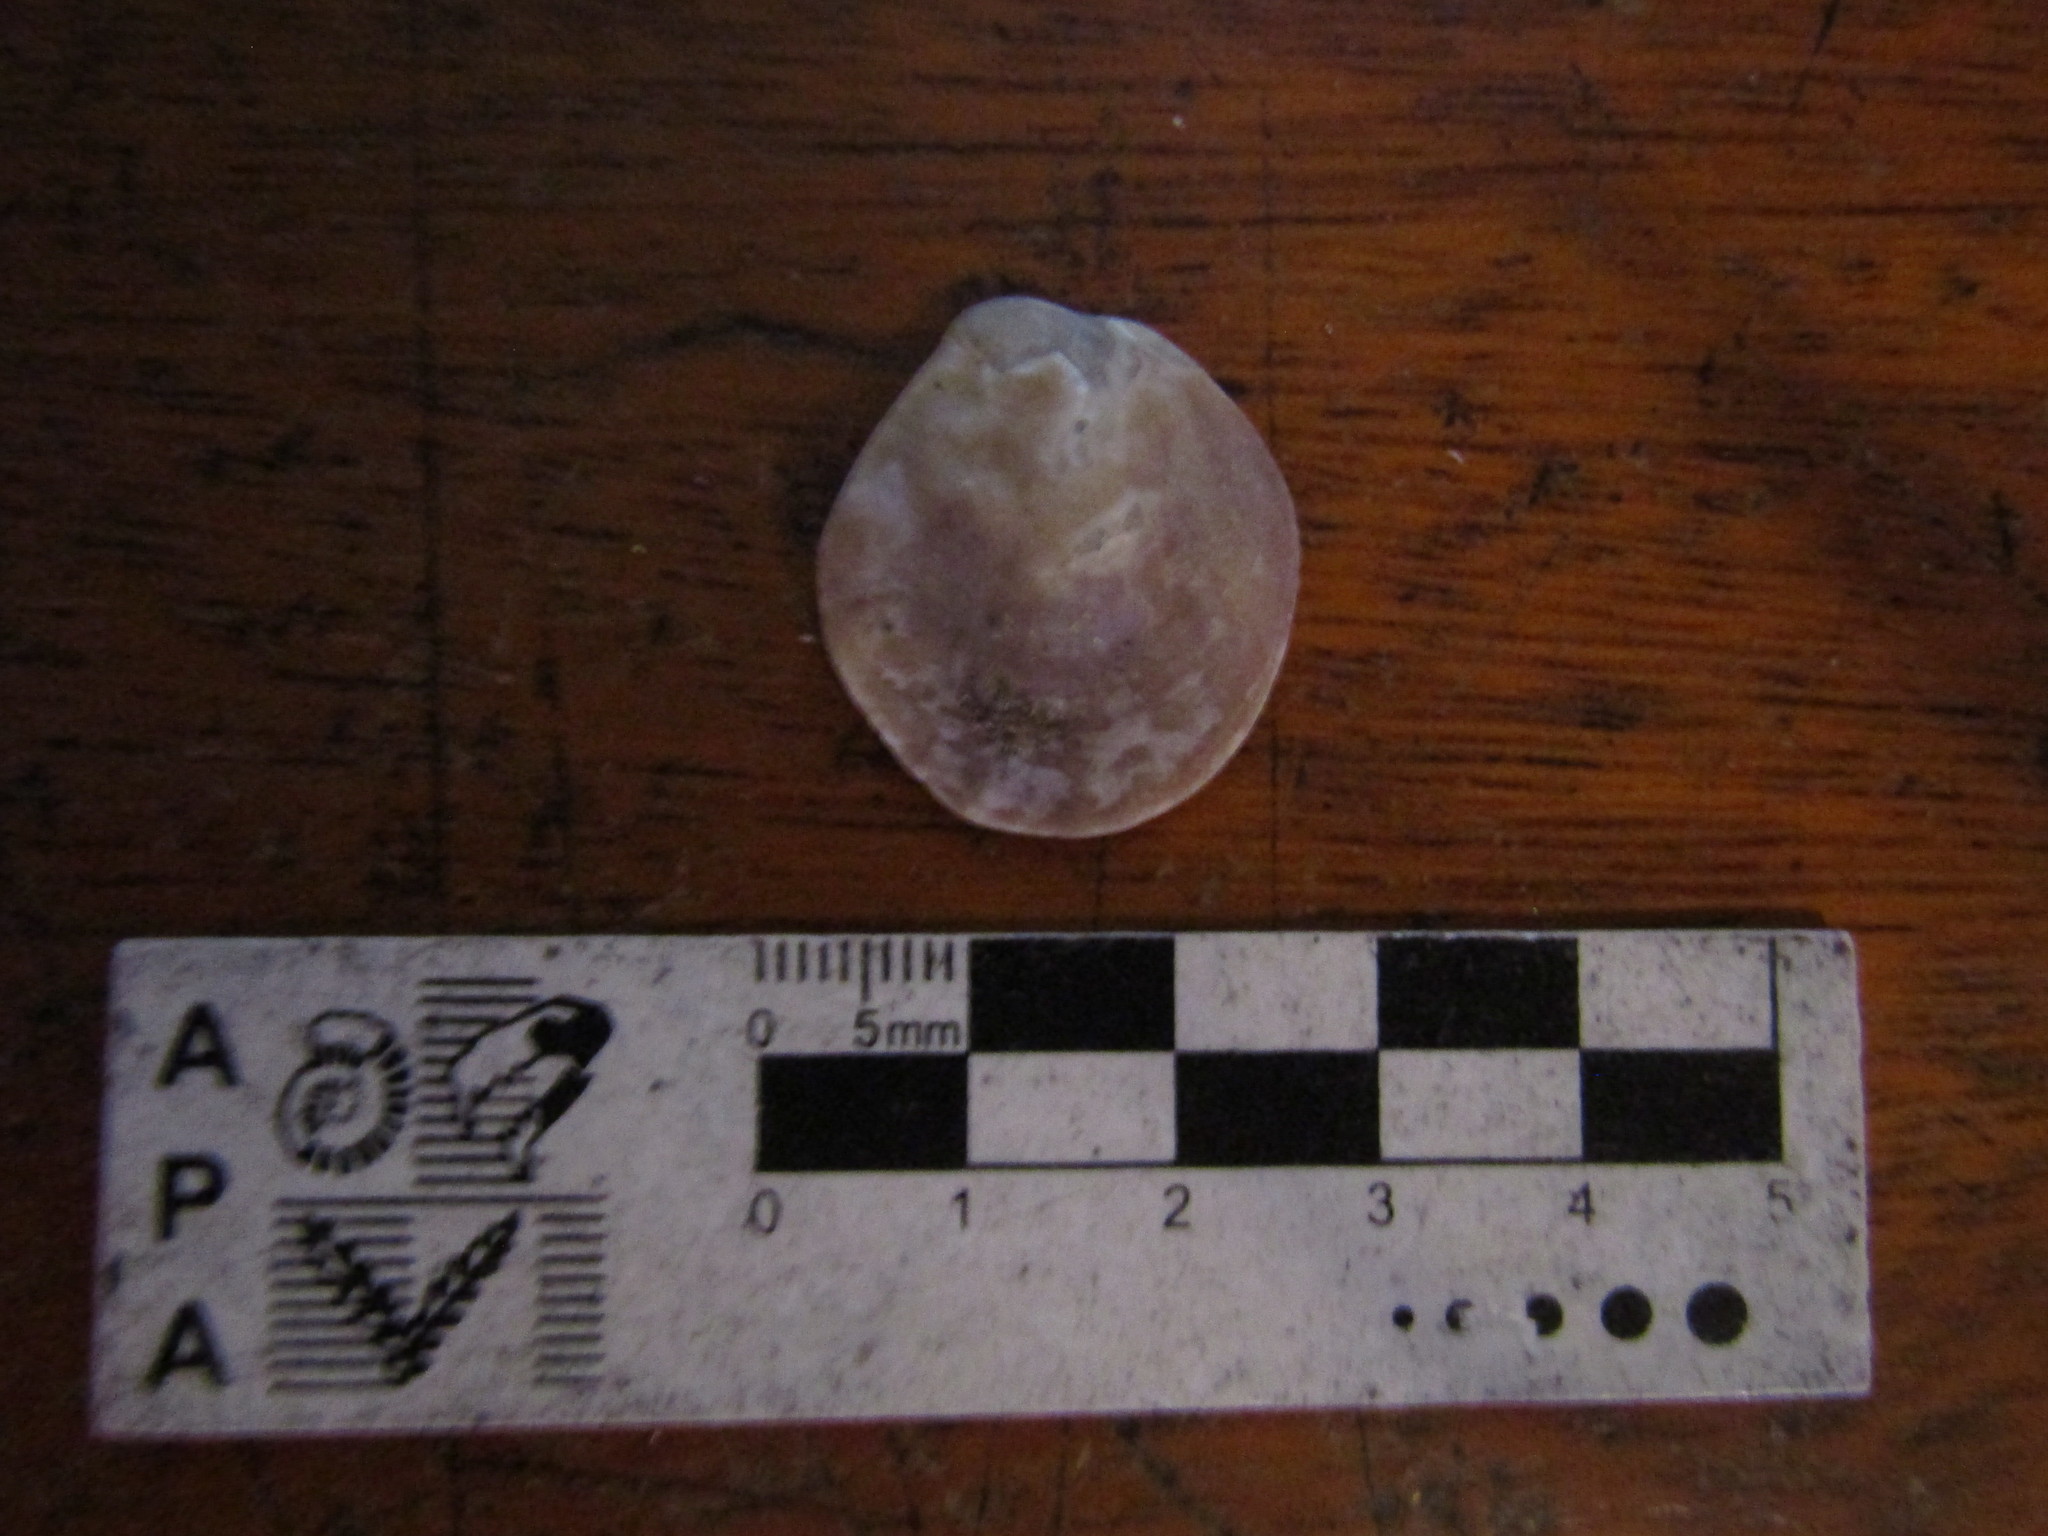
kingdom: Animalia
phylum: Mollusca
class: Bivalvia
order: Ostreida
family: Ostreidae
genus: Ostrea
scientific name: Ostrea puelchana
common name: Argentine flat oyster
